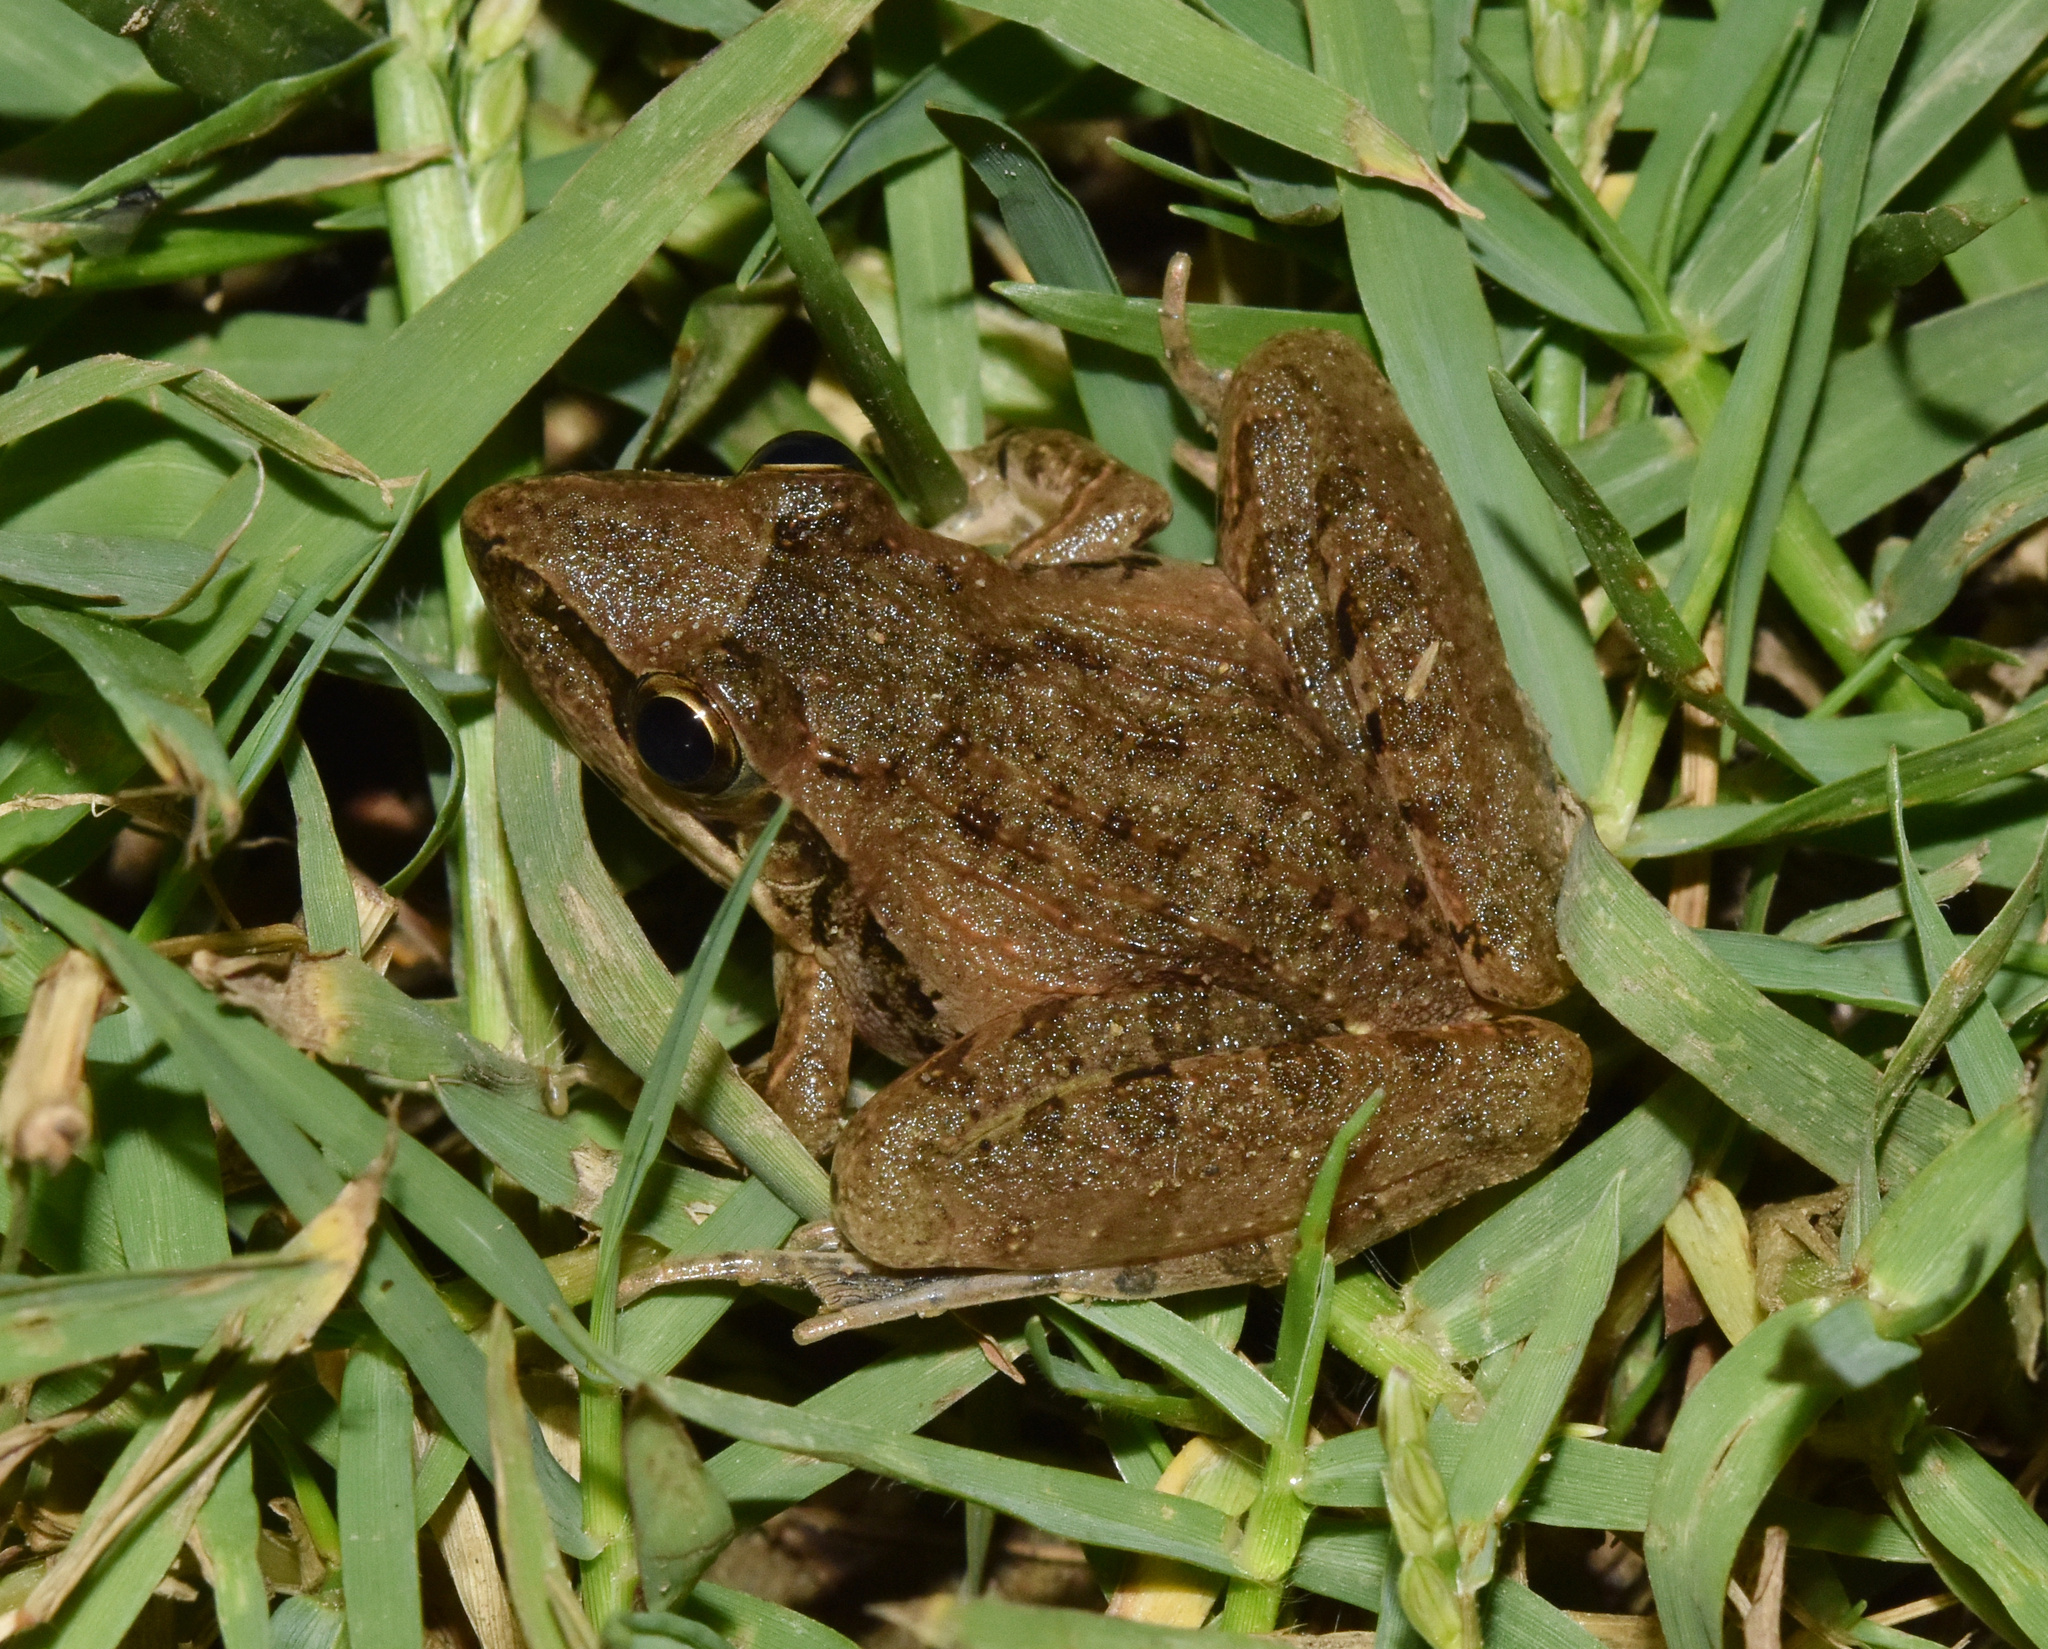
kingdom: Animalia
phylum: Chordata
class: Amphibia
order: Anura
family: Ptychadenidae
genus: Ptychadena
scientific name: Ptychadena anchietae
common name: Anchieta's ridged frog
